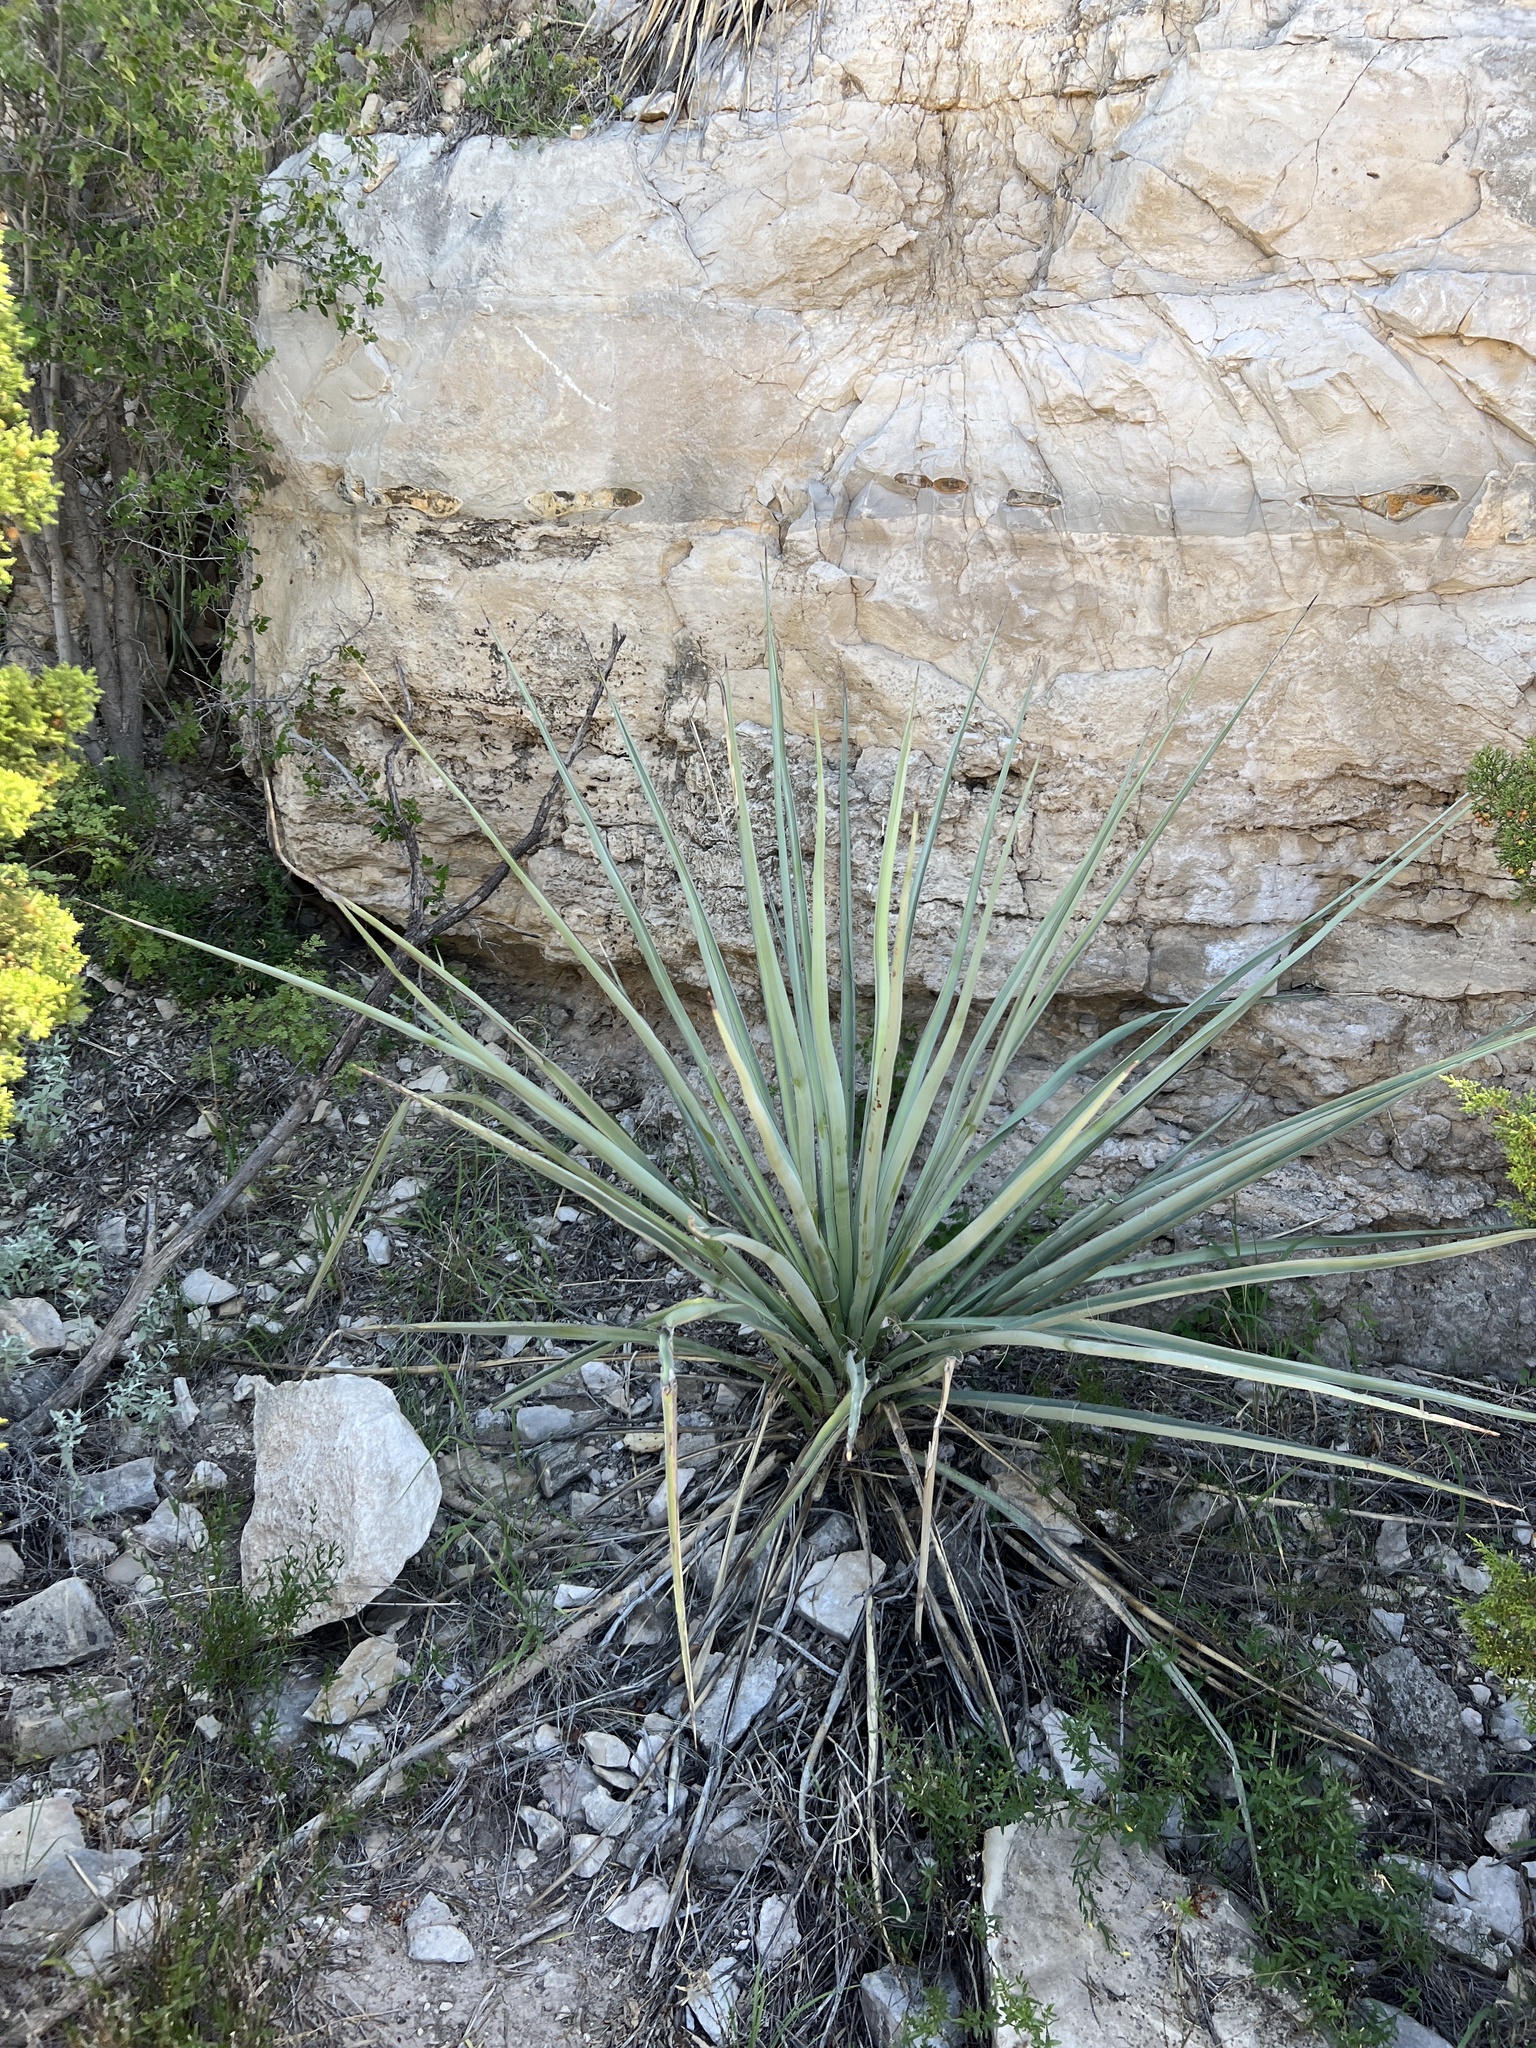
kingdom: Plantae
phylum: Tracheophyta
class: Liliopsida
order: Asparagales
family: Asparagaceae
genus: Yucca
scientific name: Yucca treculiana
